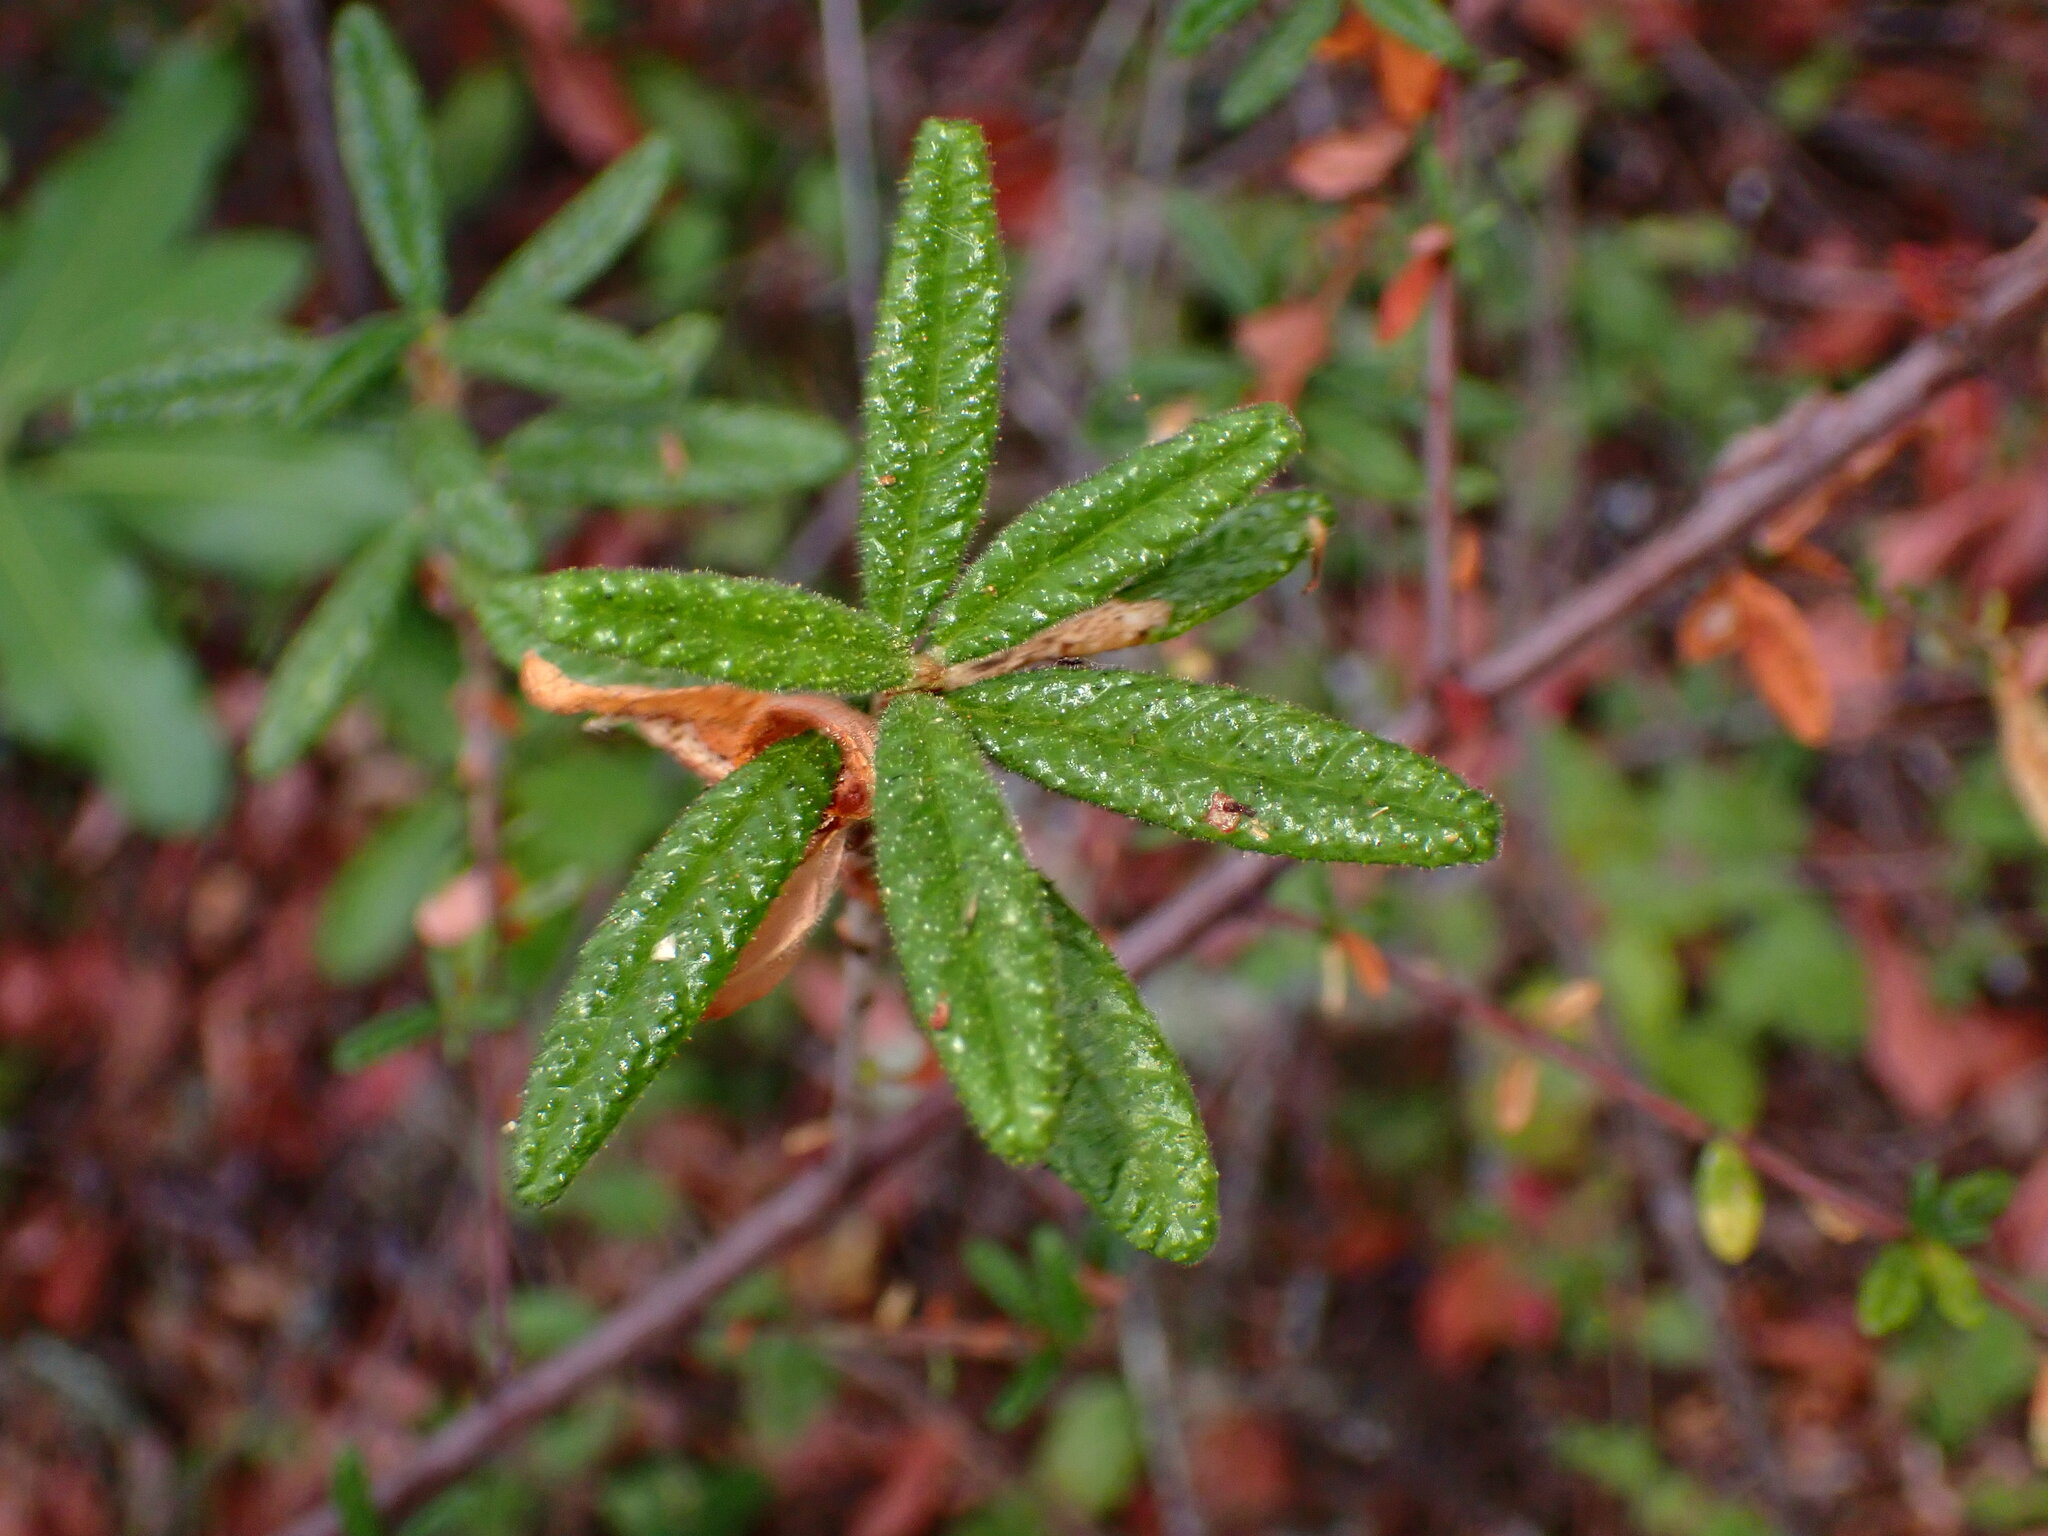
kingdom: Plantae
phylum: Tracheophyta
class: Magnoliopsida
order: Rosales
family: Rhamnaceae
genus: Ceanothus
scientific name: Ceanothus papillosus
